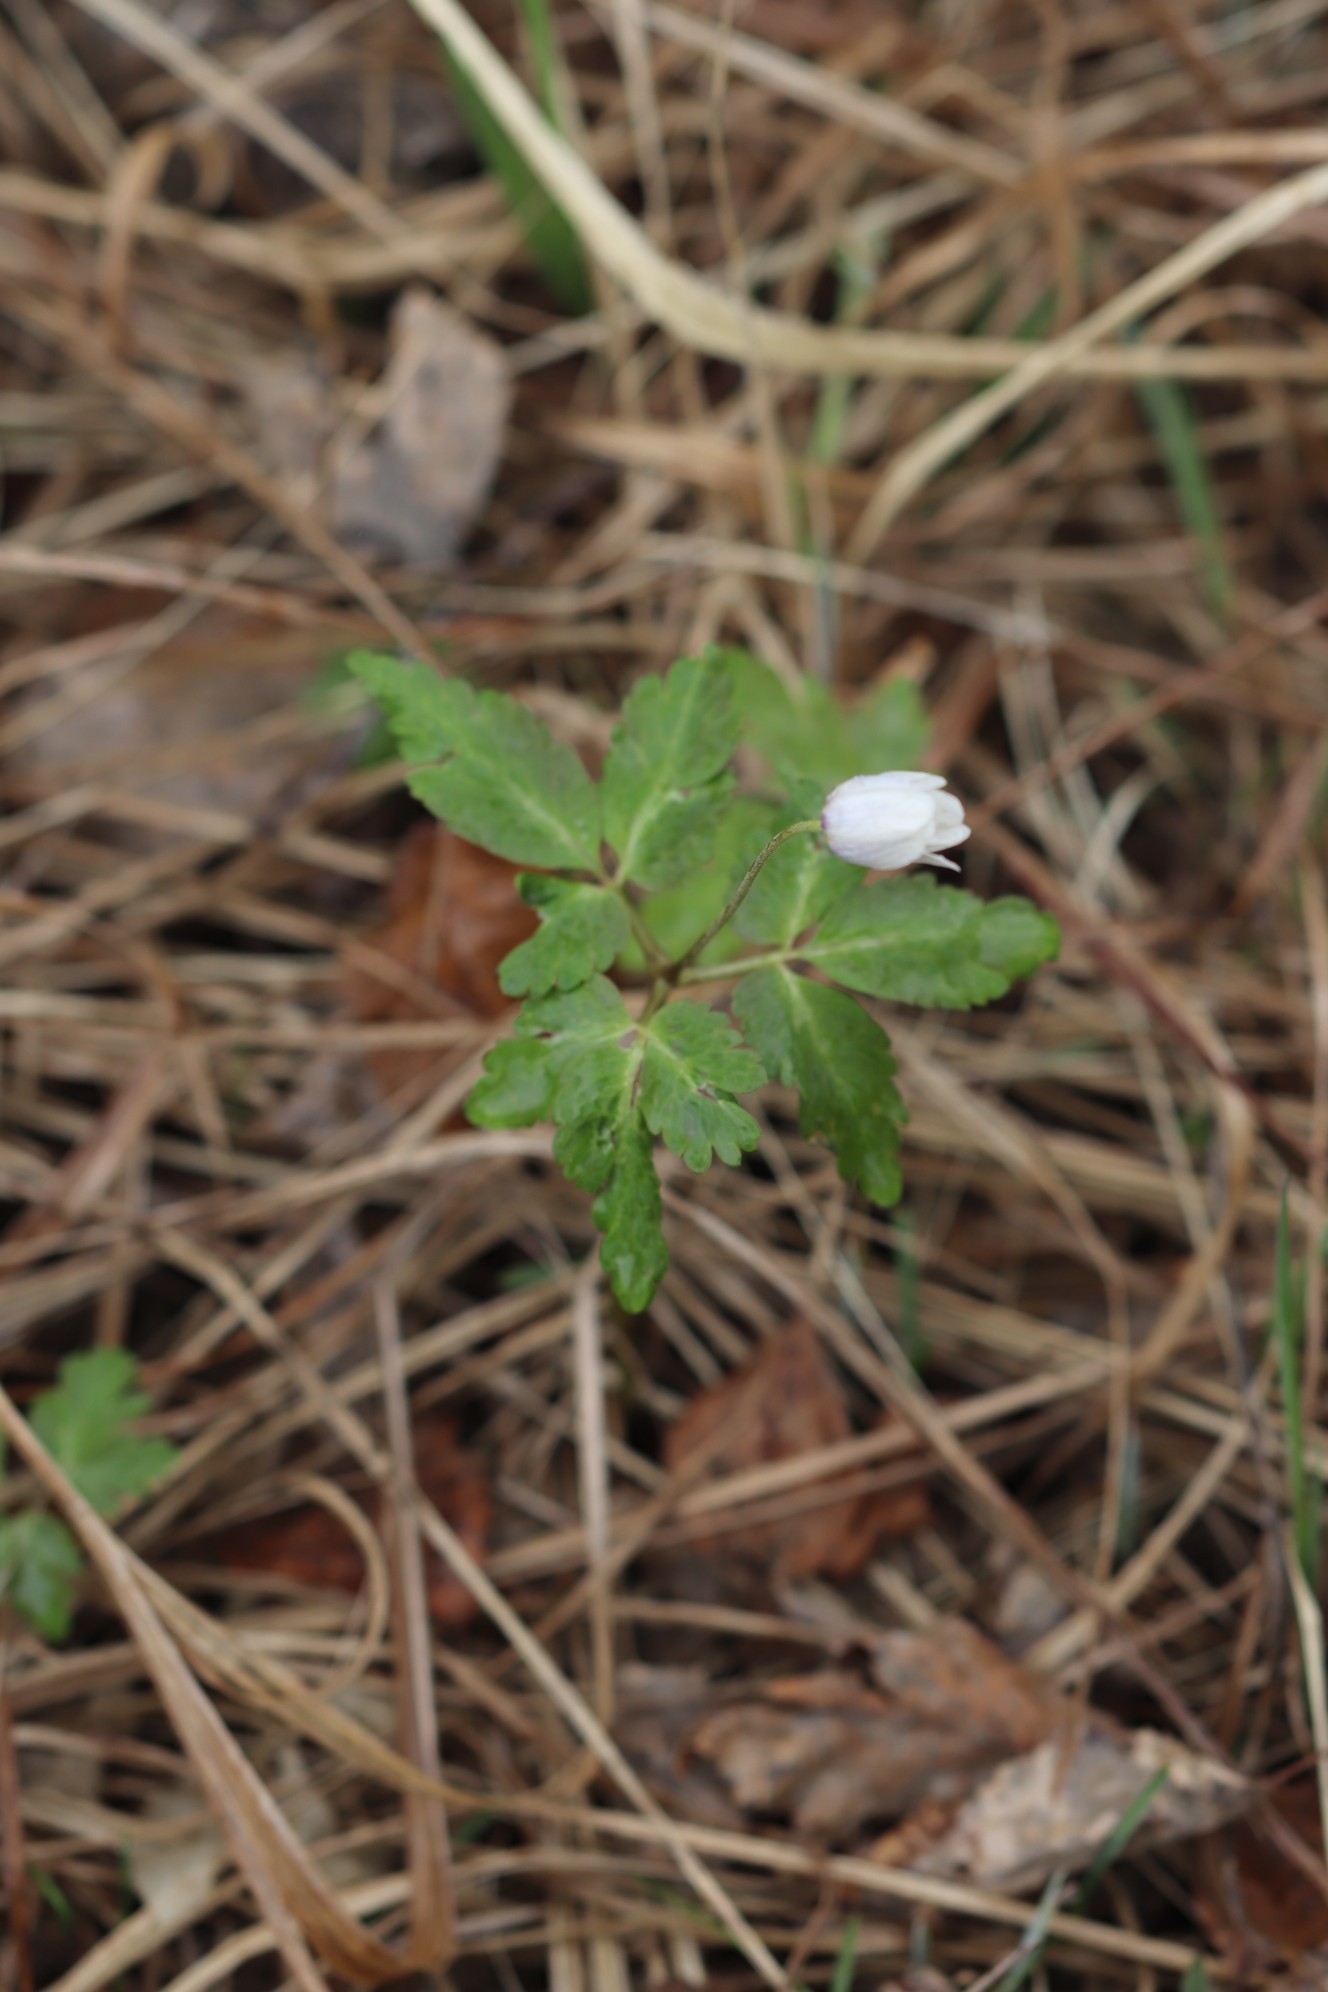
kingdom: Plantae
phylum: Tracheophyta
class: Magnoliopsida
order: Ranunculales
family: Ranunculaceae
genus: Anemone
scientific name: Anemone altaica
